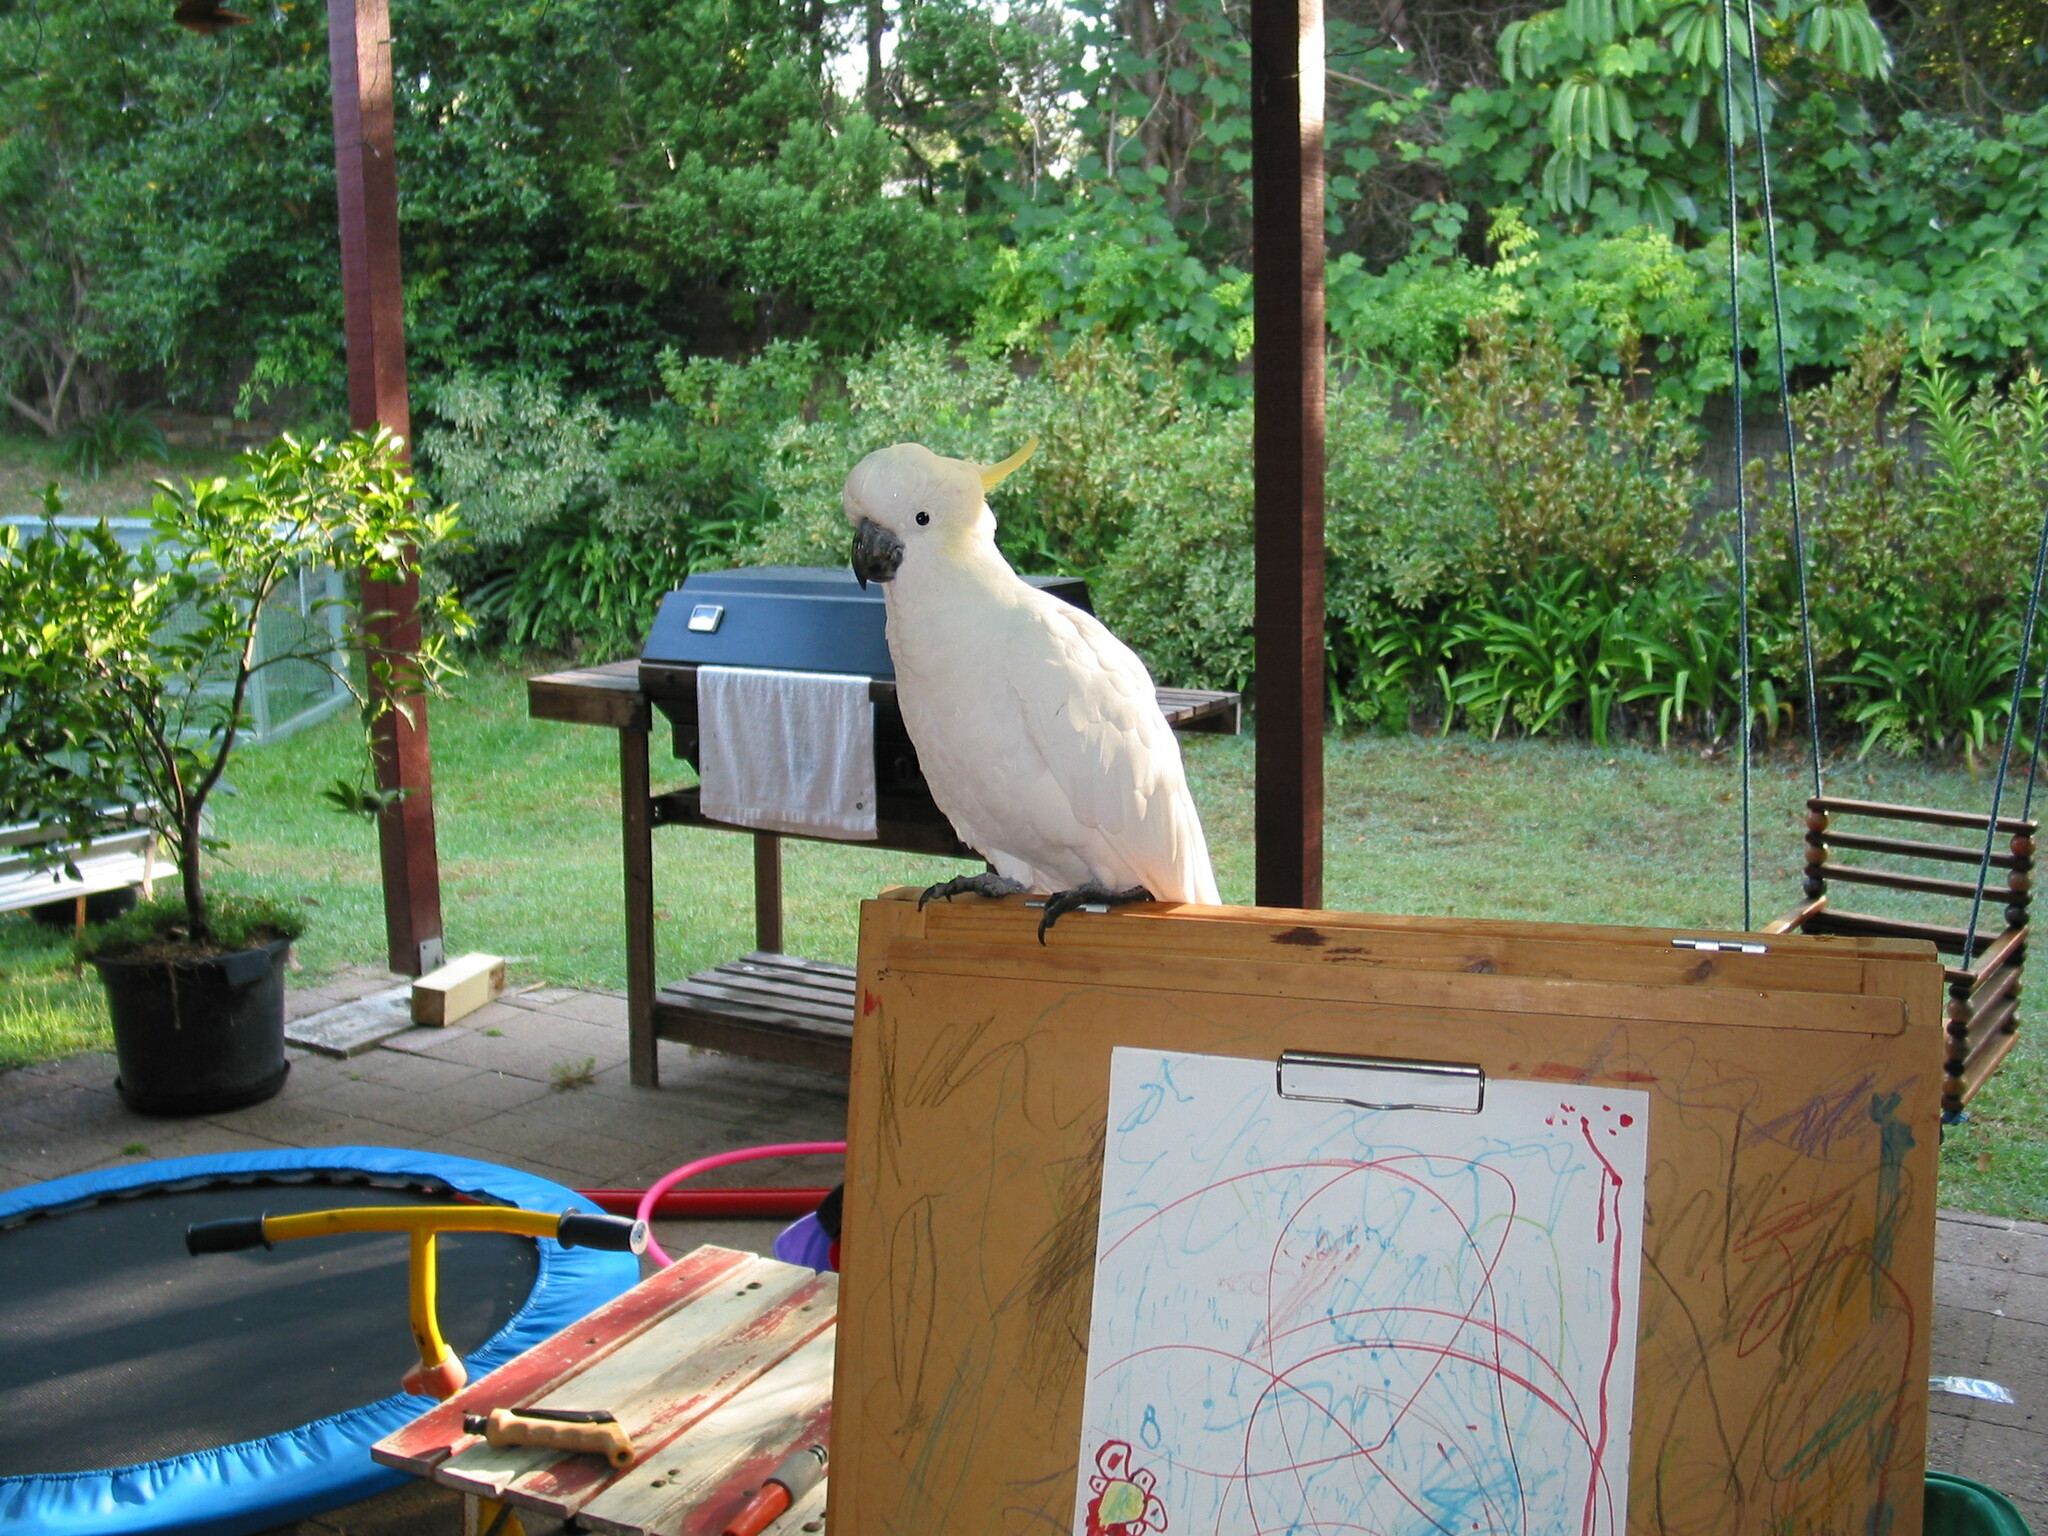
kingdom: Animalia
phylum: Chordata
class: Aves
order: Psittaciformes
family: Psittacidae
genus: Cacatua
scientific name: Cacatua galerita
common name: Sulphur-crested cockatoo
